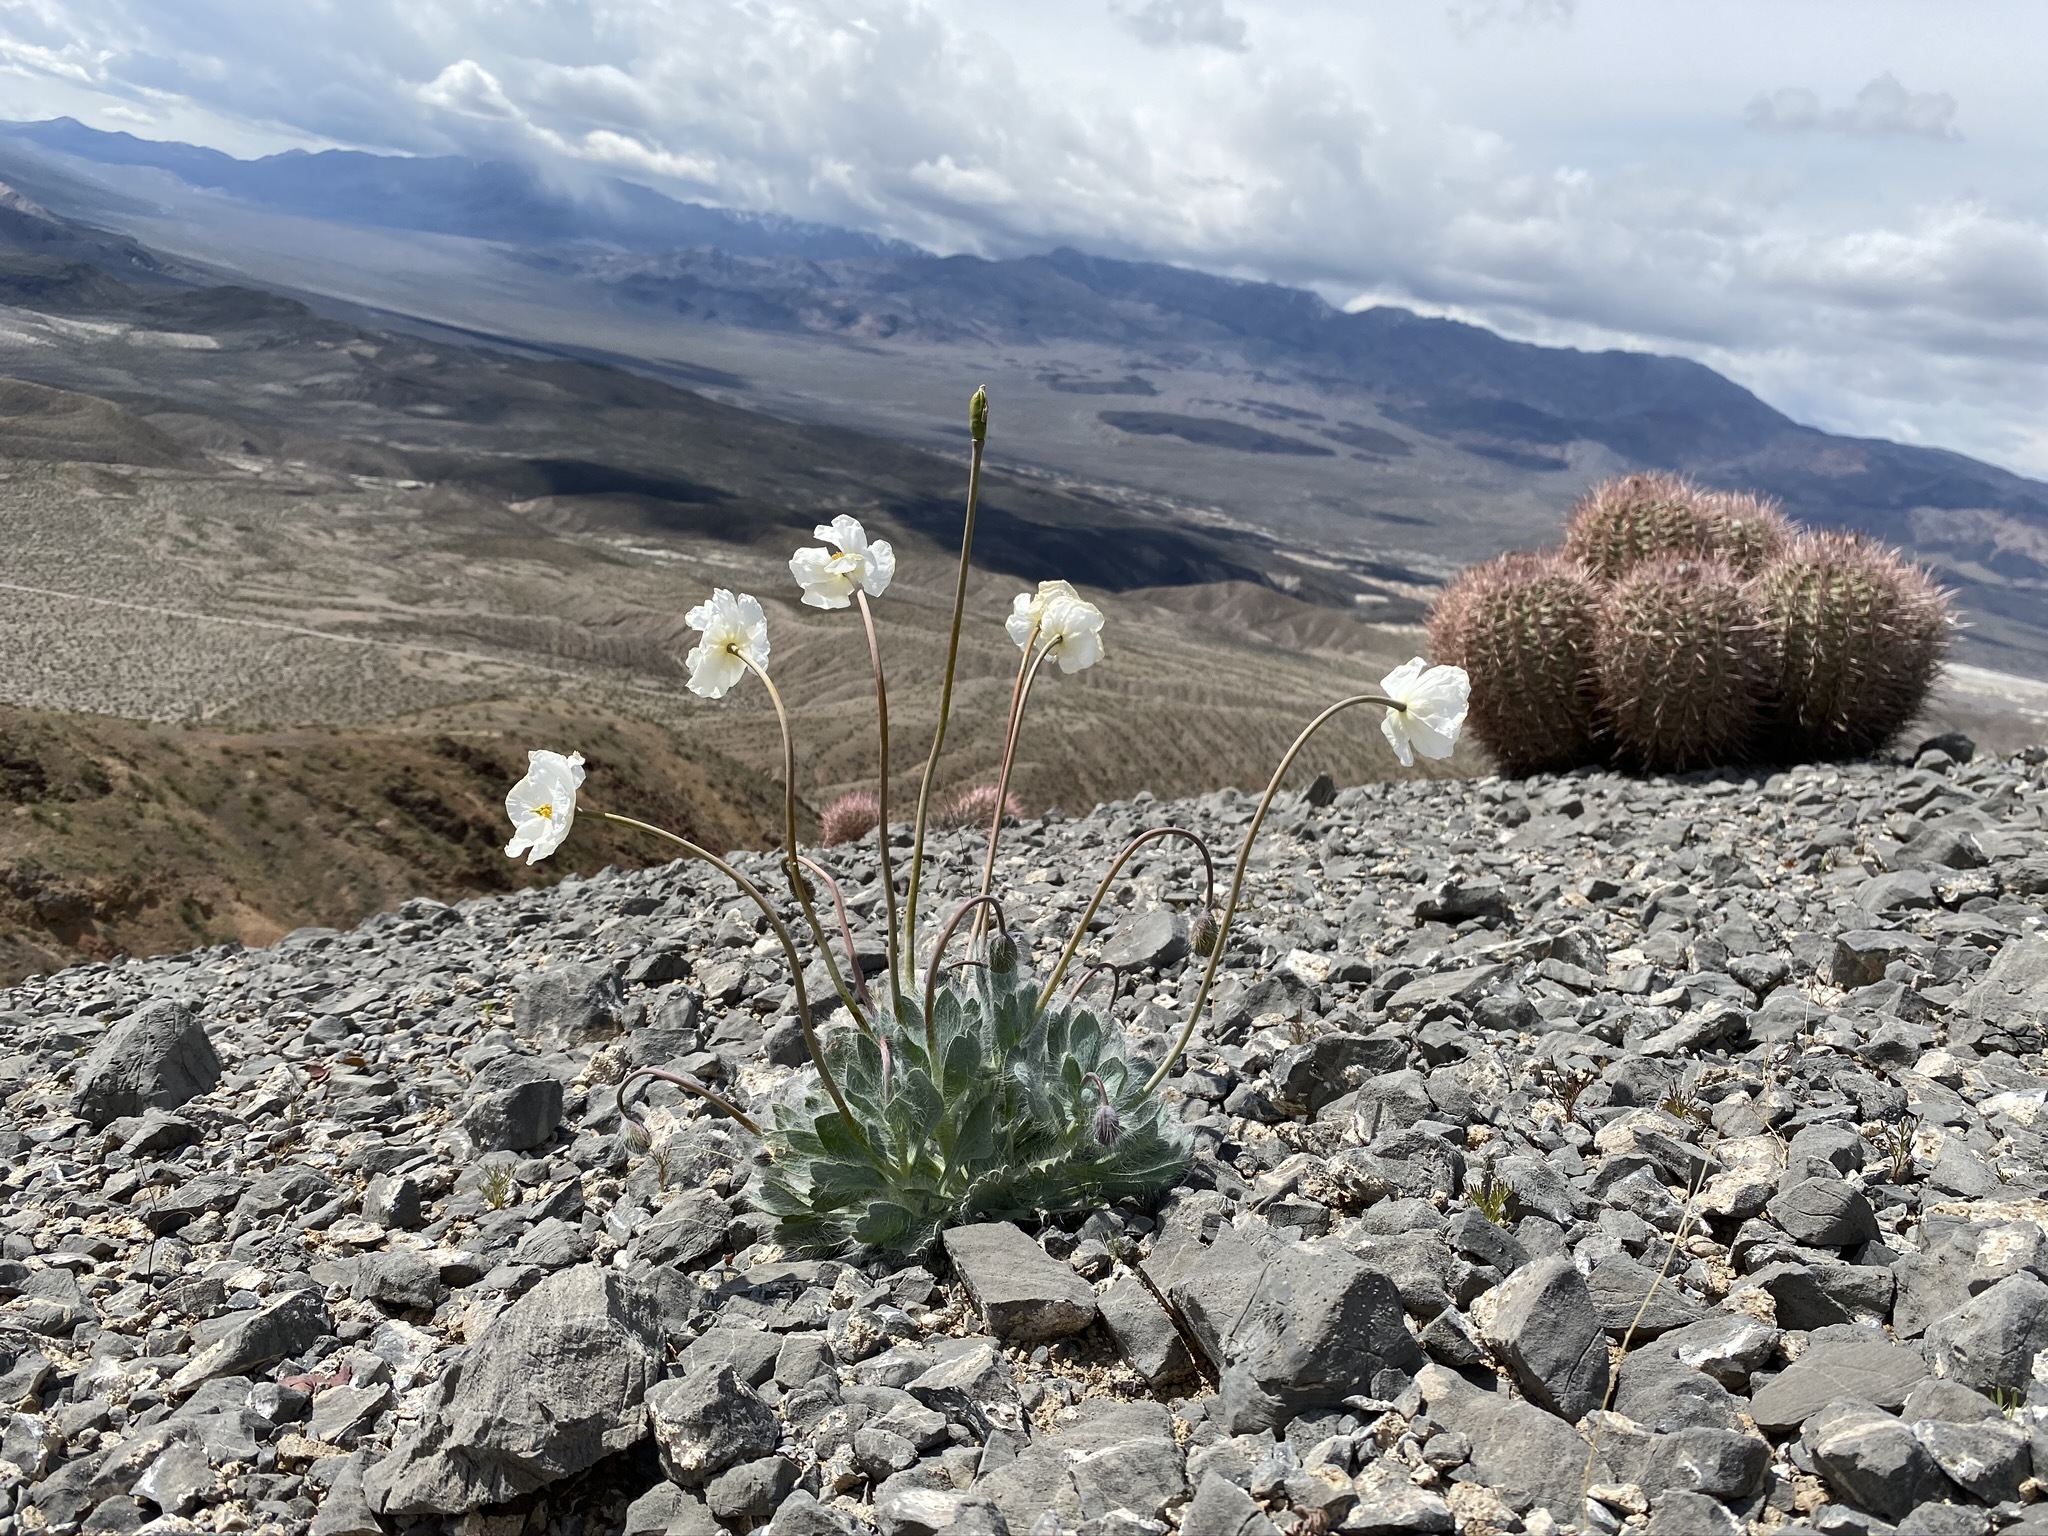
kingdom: Plantae
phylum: Tracheophyta
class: Magnoliopsida
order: Ranunculales
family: Papaveraceae
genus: Arctomecon
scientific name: Arctomecon merriamii
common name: White bear-poppy
